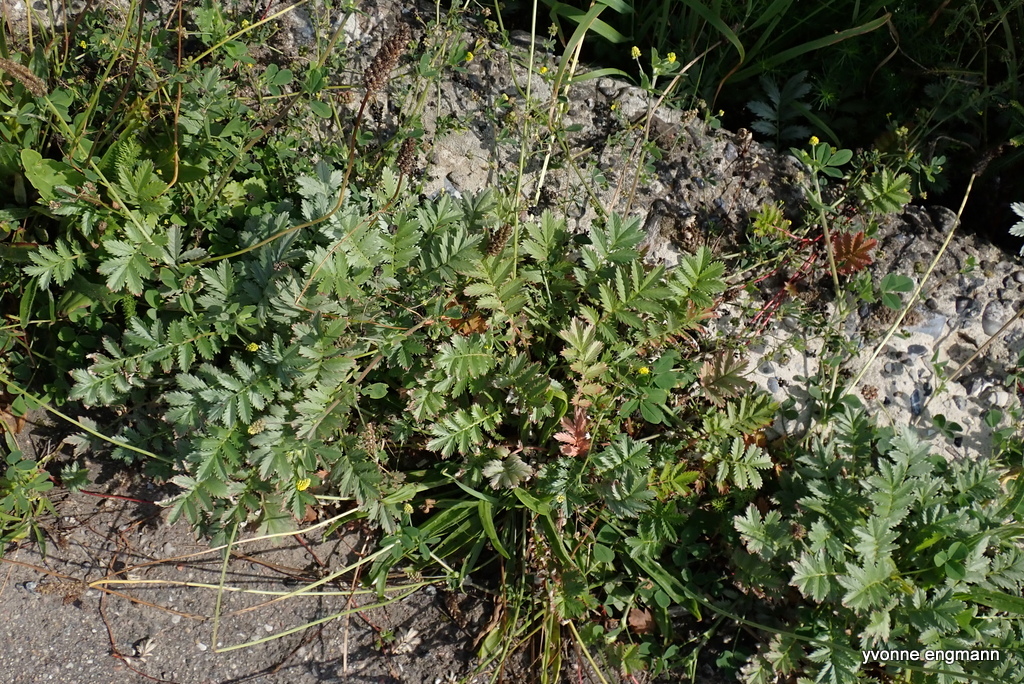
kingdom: Plantae
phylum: Tracheophyta
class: Magnoliopsida
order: Rosales
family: Rosaceae
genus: Argentina
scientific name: Argentina anserina
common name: Common silverweed
